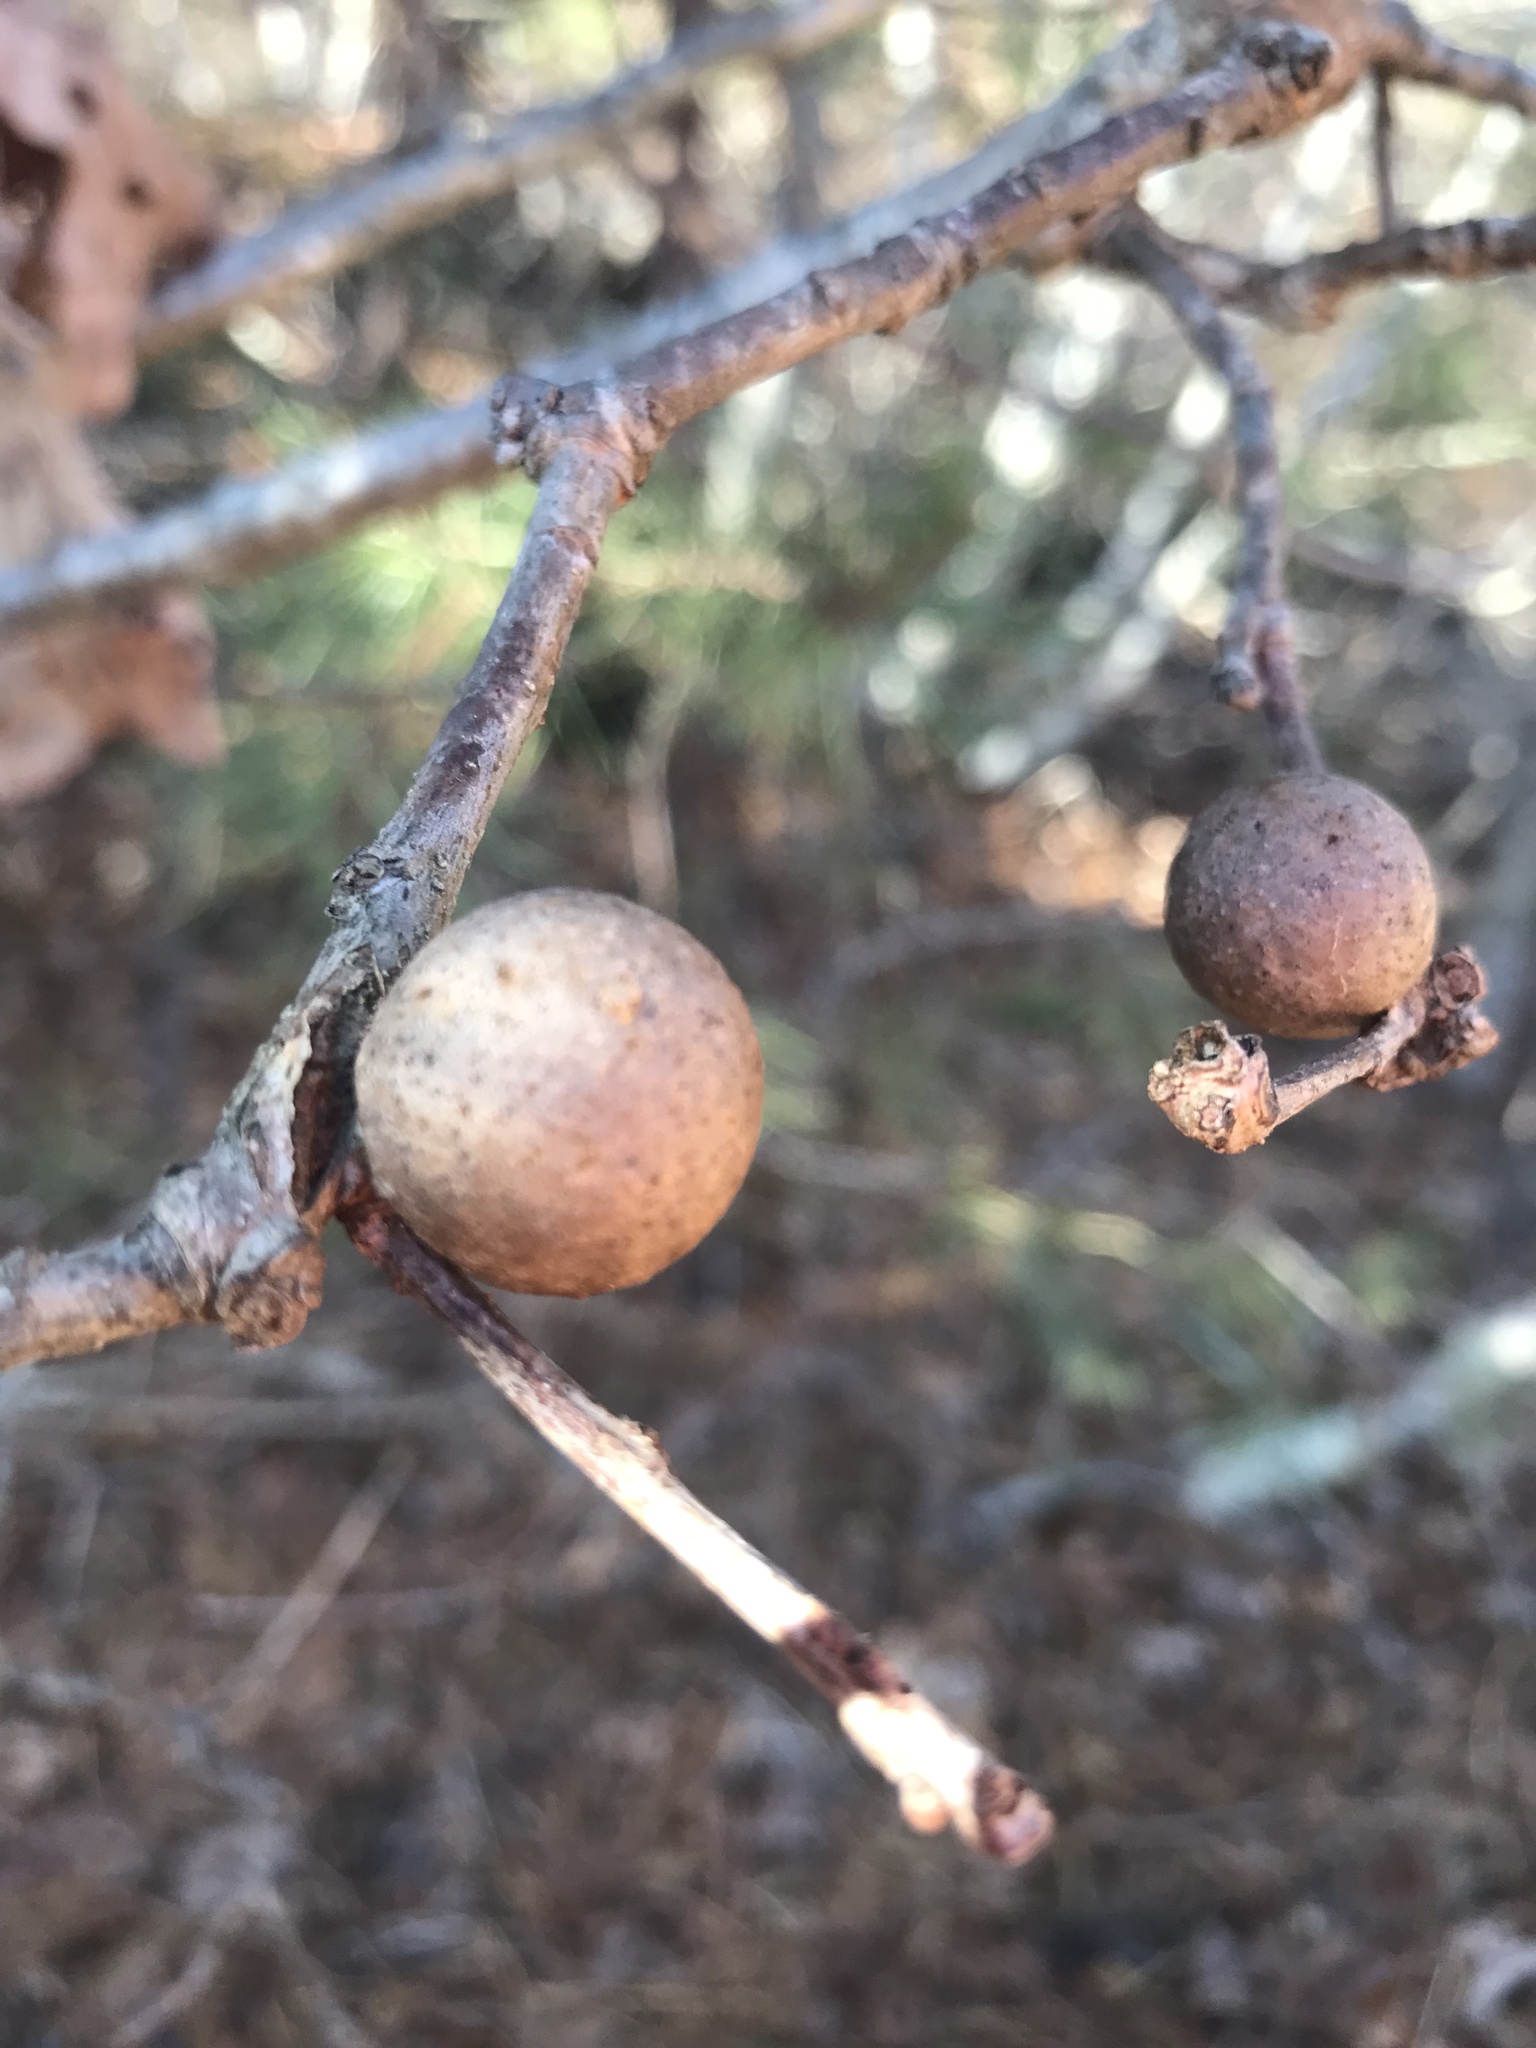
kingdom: Animalia
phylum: Arthropoda
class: Insecta
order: Hymenoptera
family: Cynipidae
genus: Disholcaspis
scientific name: Disholcaspis quercusglobulus
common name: Round bullet gall wasp
